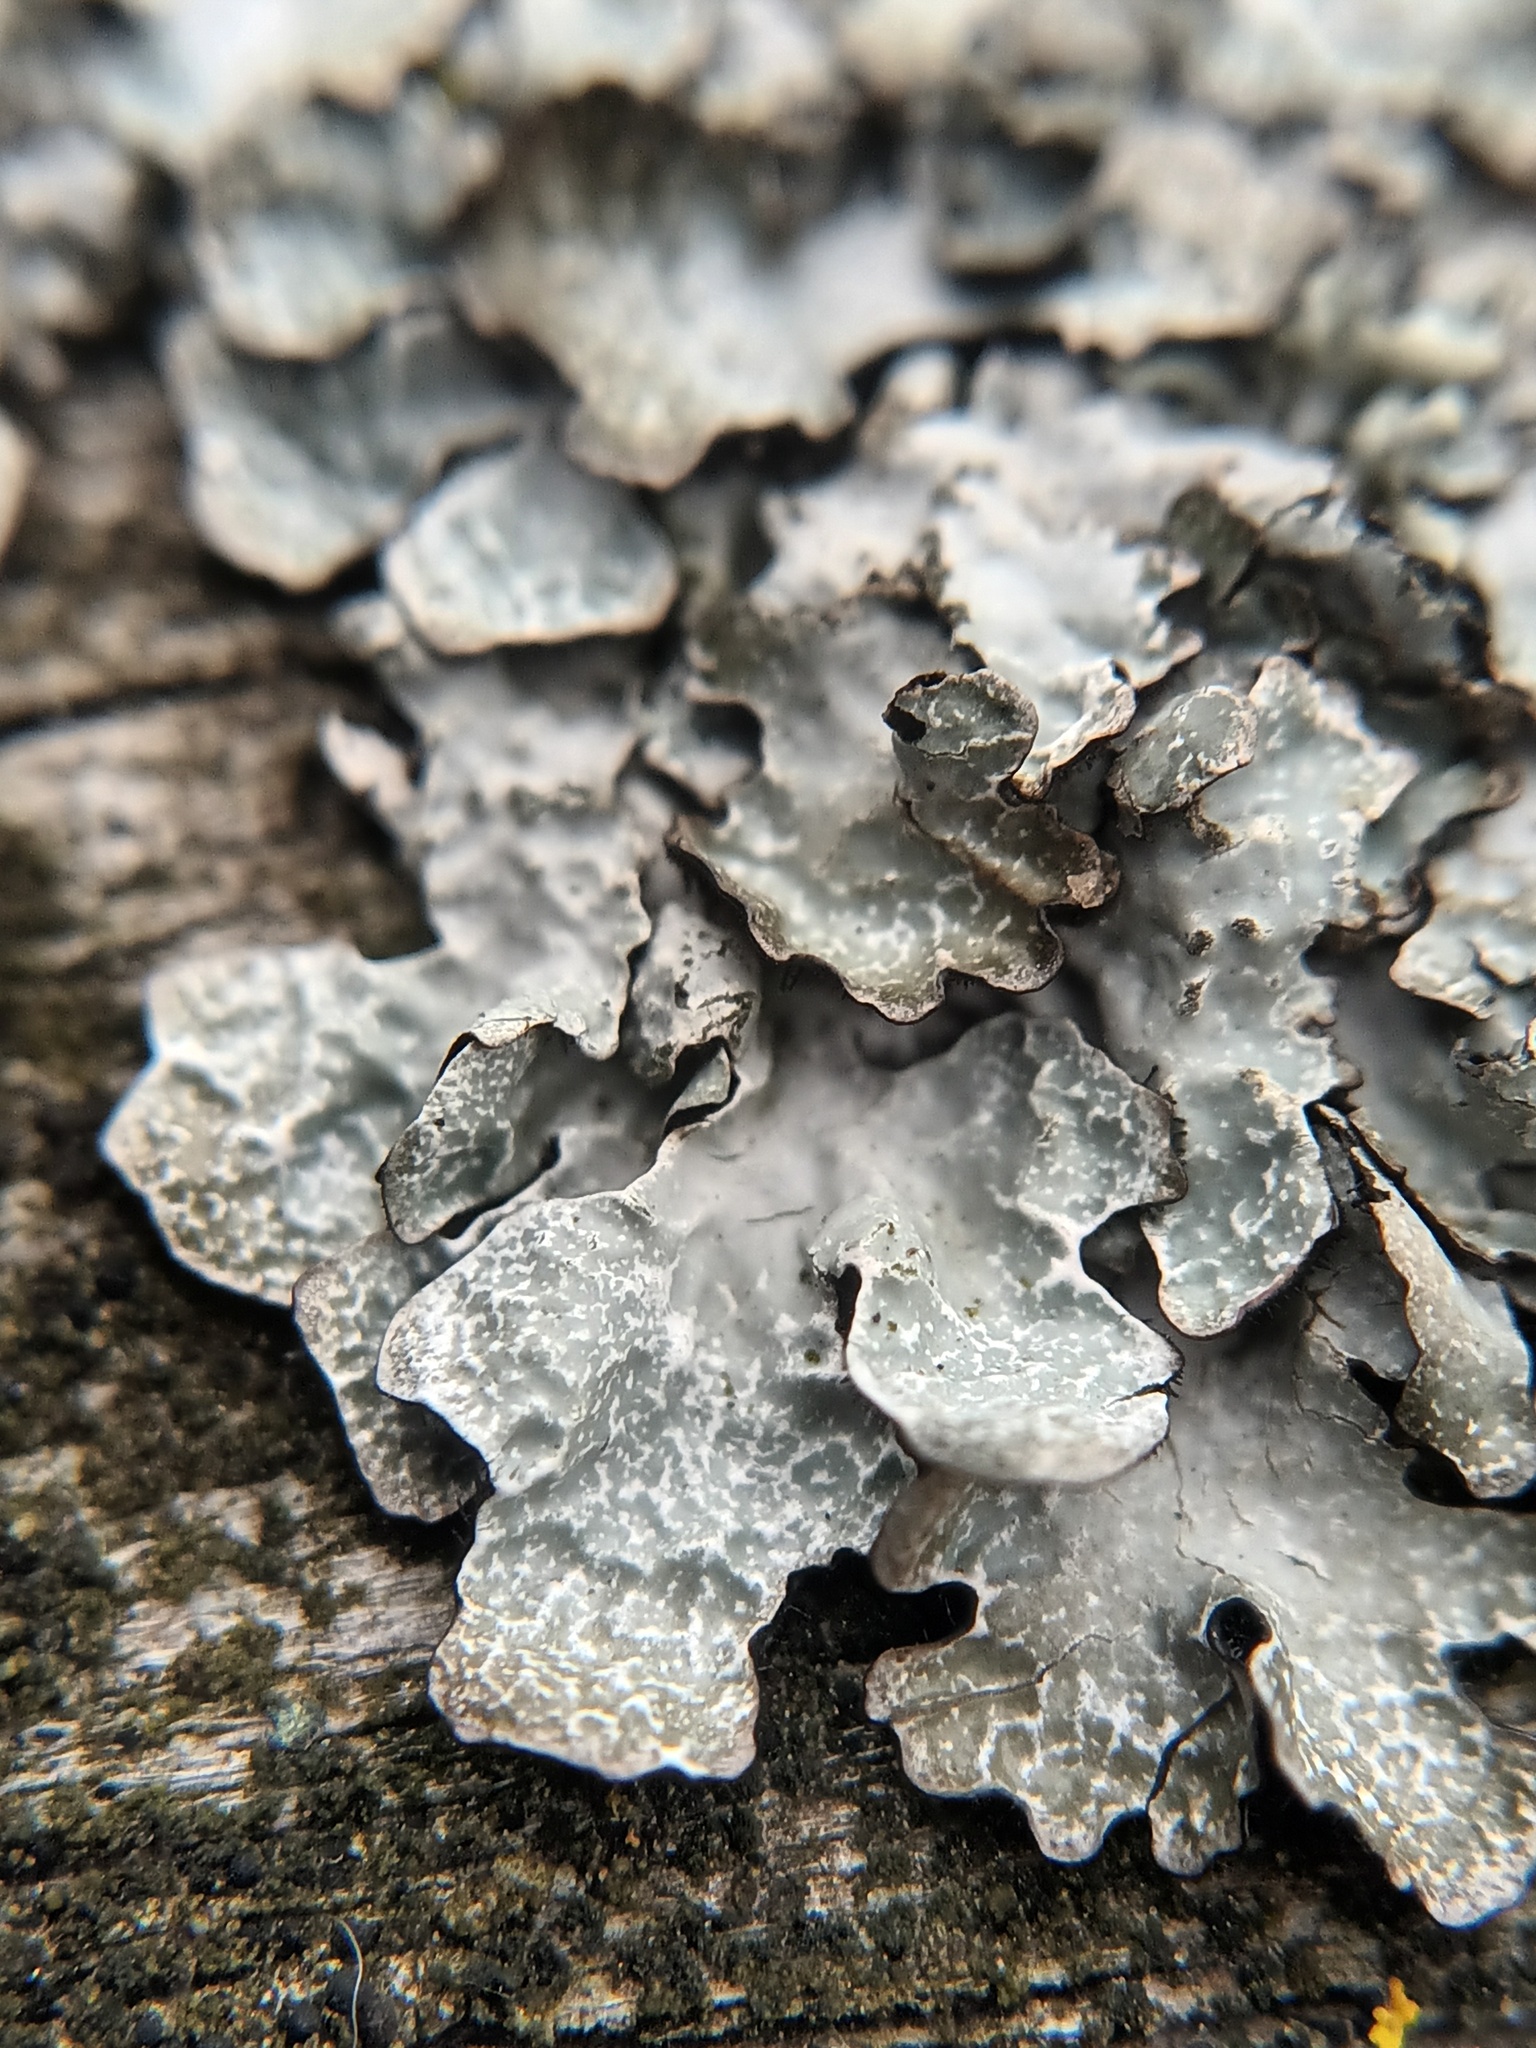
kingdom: Fungi
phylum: Ascomycota
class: Lecanoromycetes
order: Lecanorales
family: Parmeliaceae
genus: Parmelia
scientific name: Parmelia sulcata
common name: Netted shield lichen
